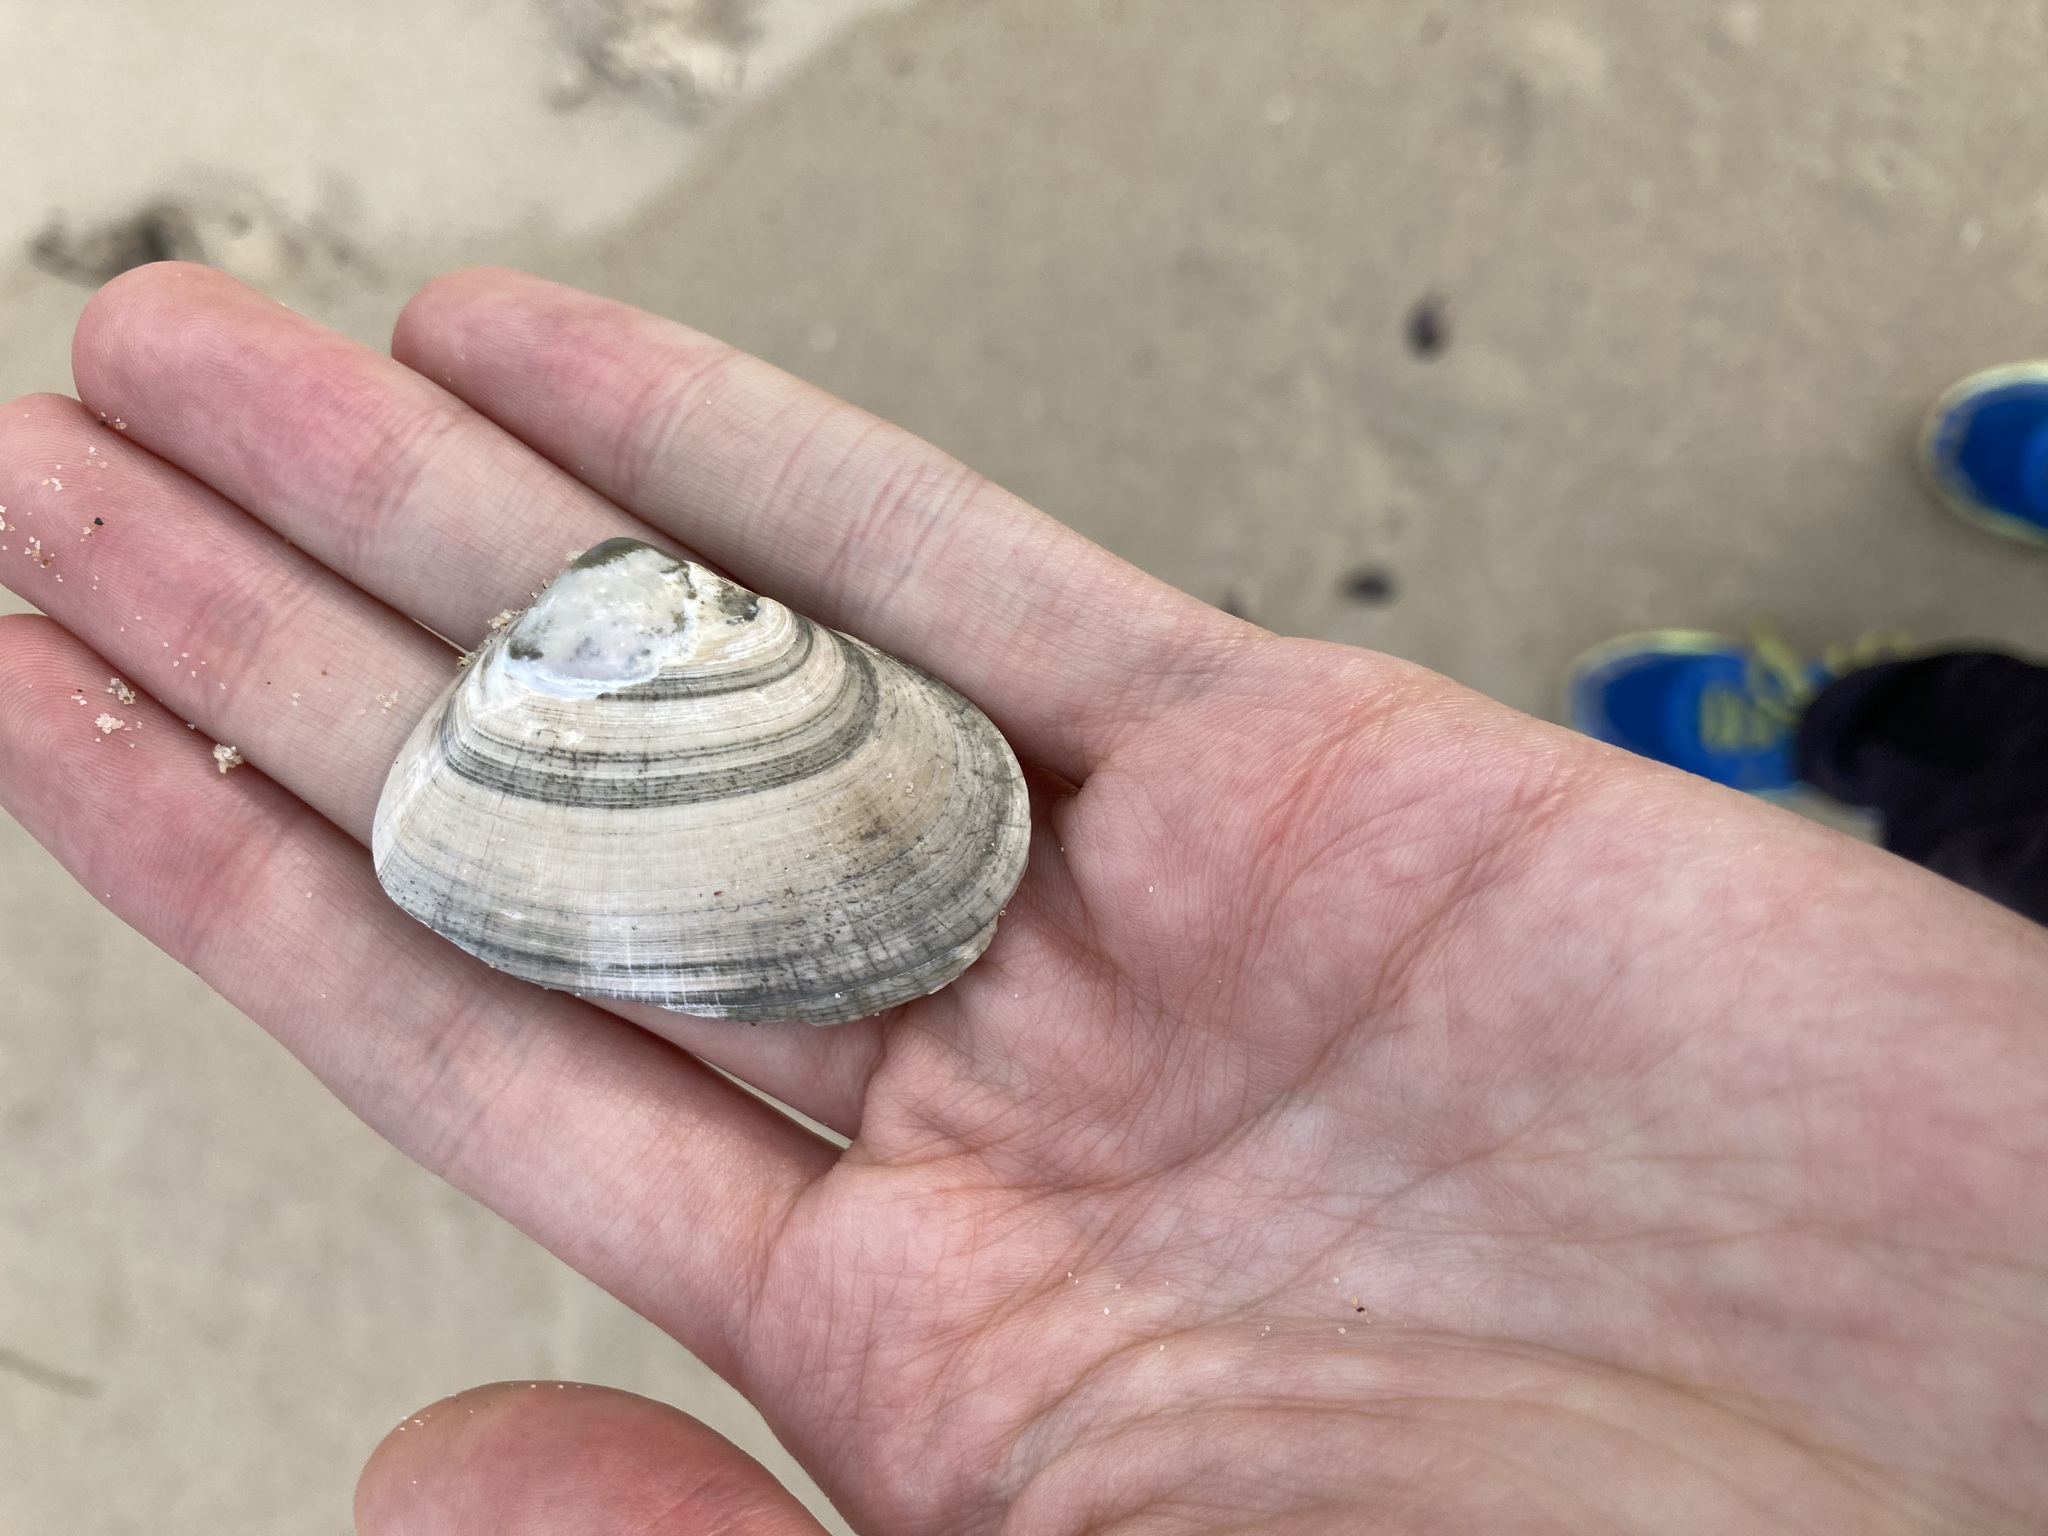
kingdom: Animalia
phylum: Mollusca
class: Bivalvia
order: Cardiida
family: Donacidae
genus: Latona
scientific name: Latona deltoides
